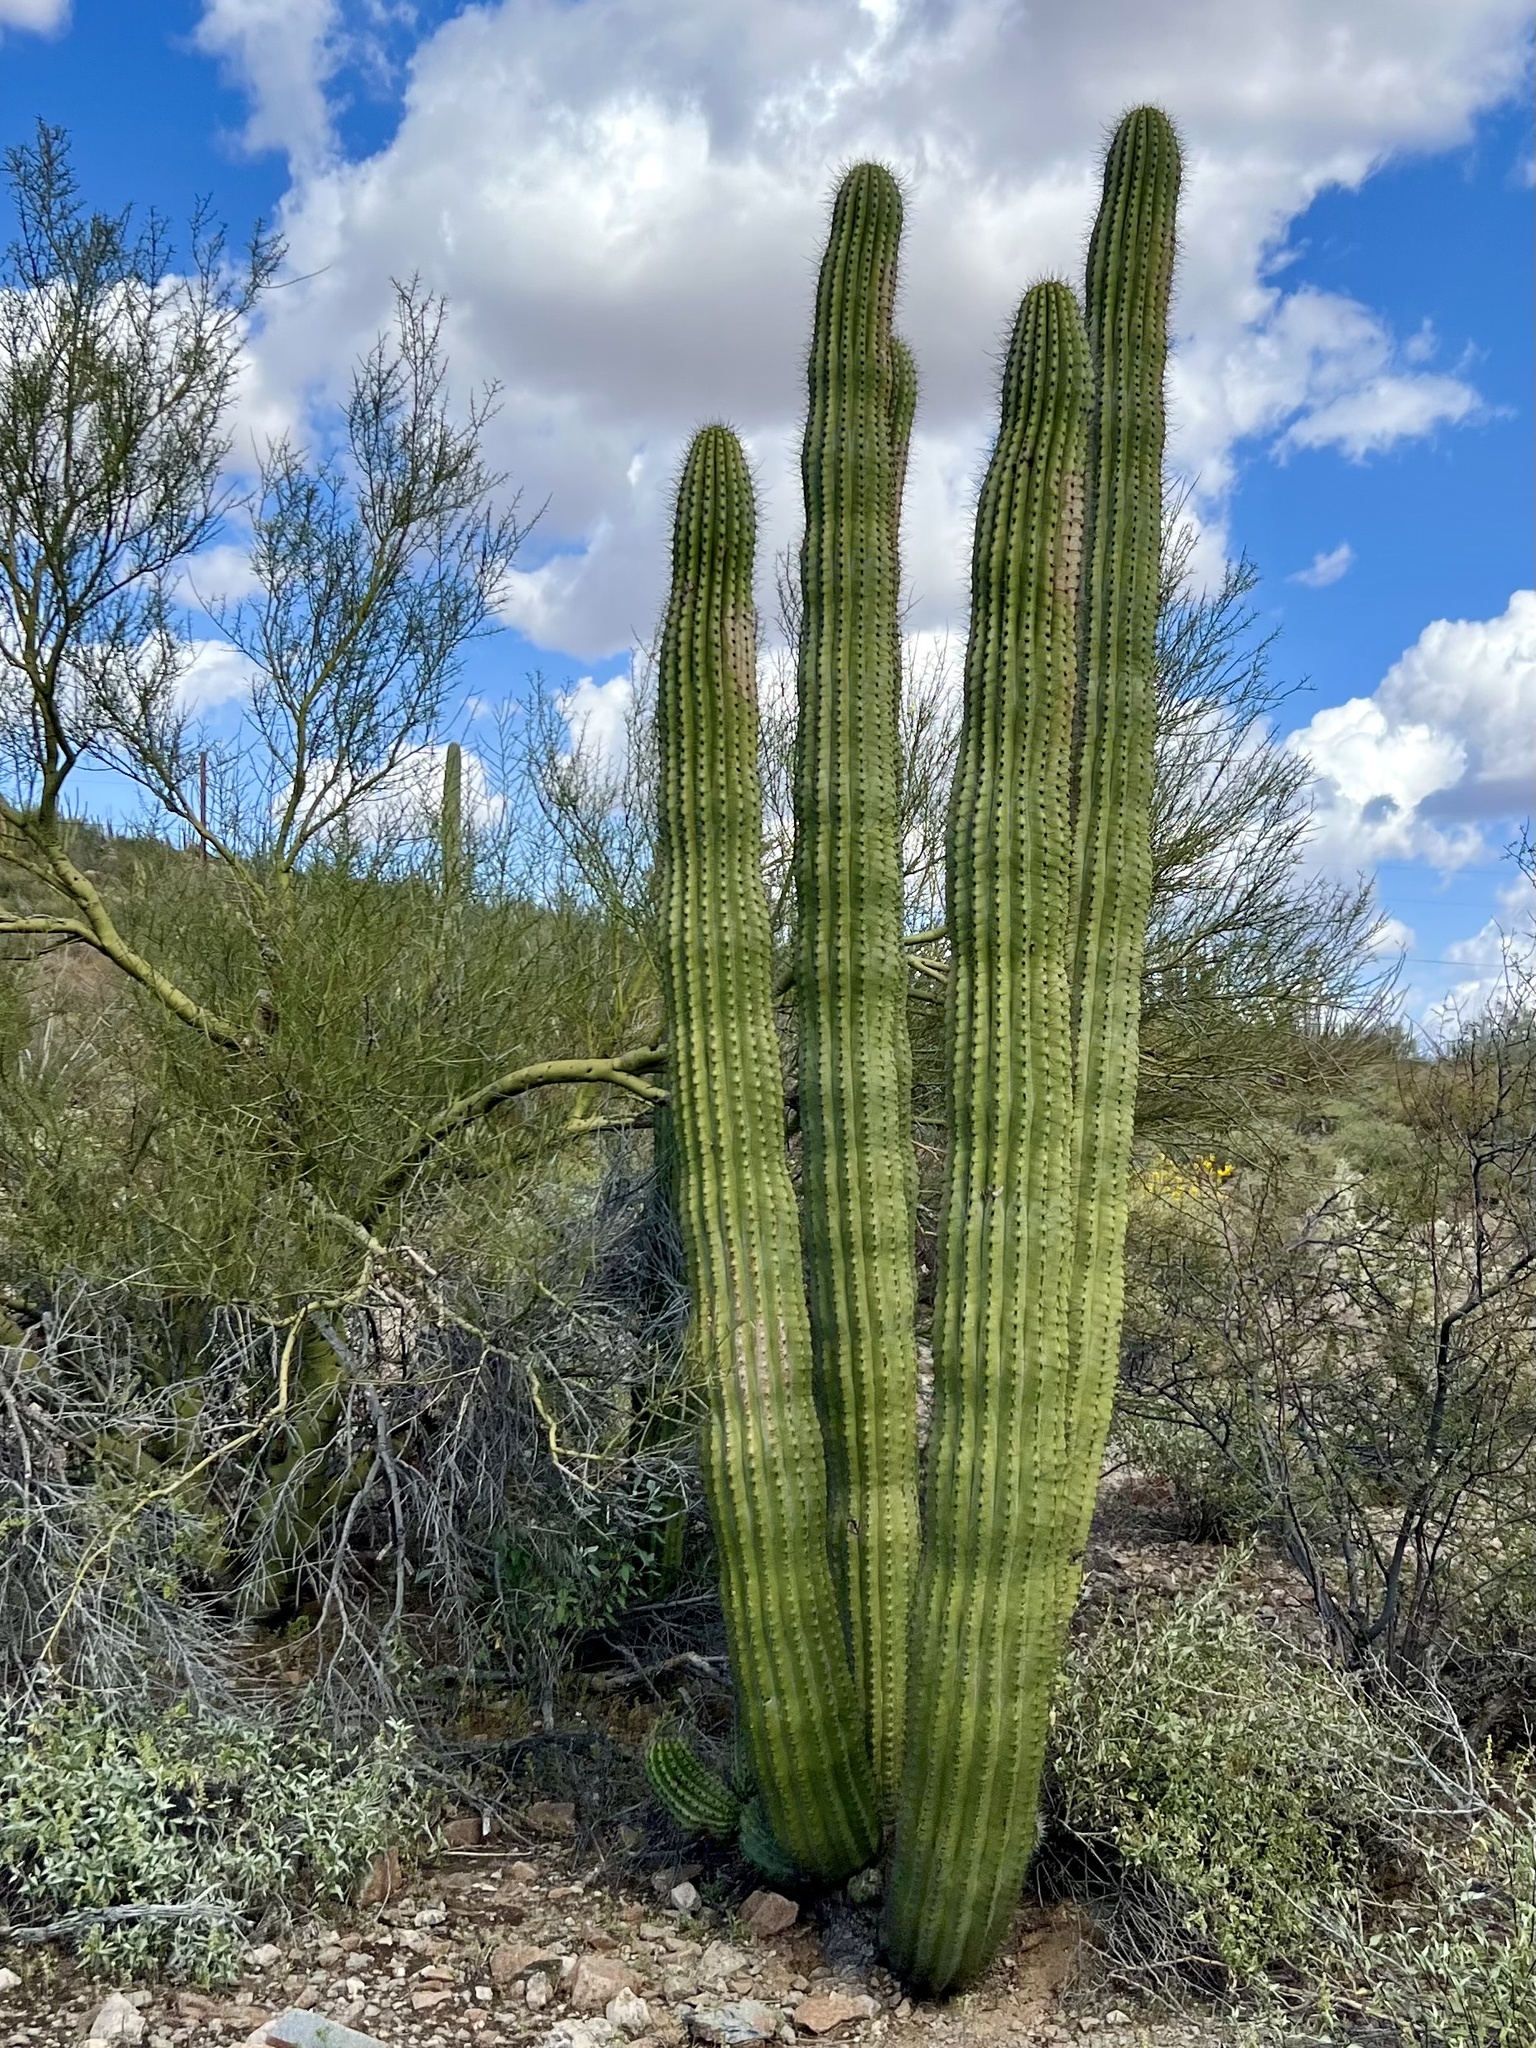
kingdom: Plantae
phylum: Tracheophyta
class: Magnoliopsida
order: Caryophyllales
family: Cactaceae
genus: Stenocereus
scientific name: Stenocereus thurberi
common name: Organ pipe cactus
